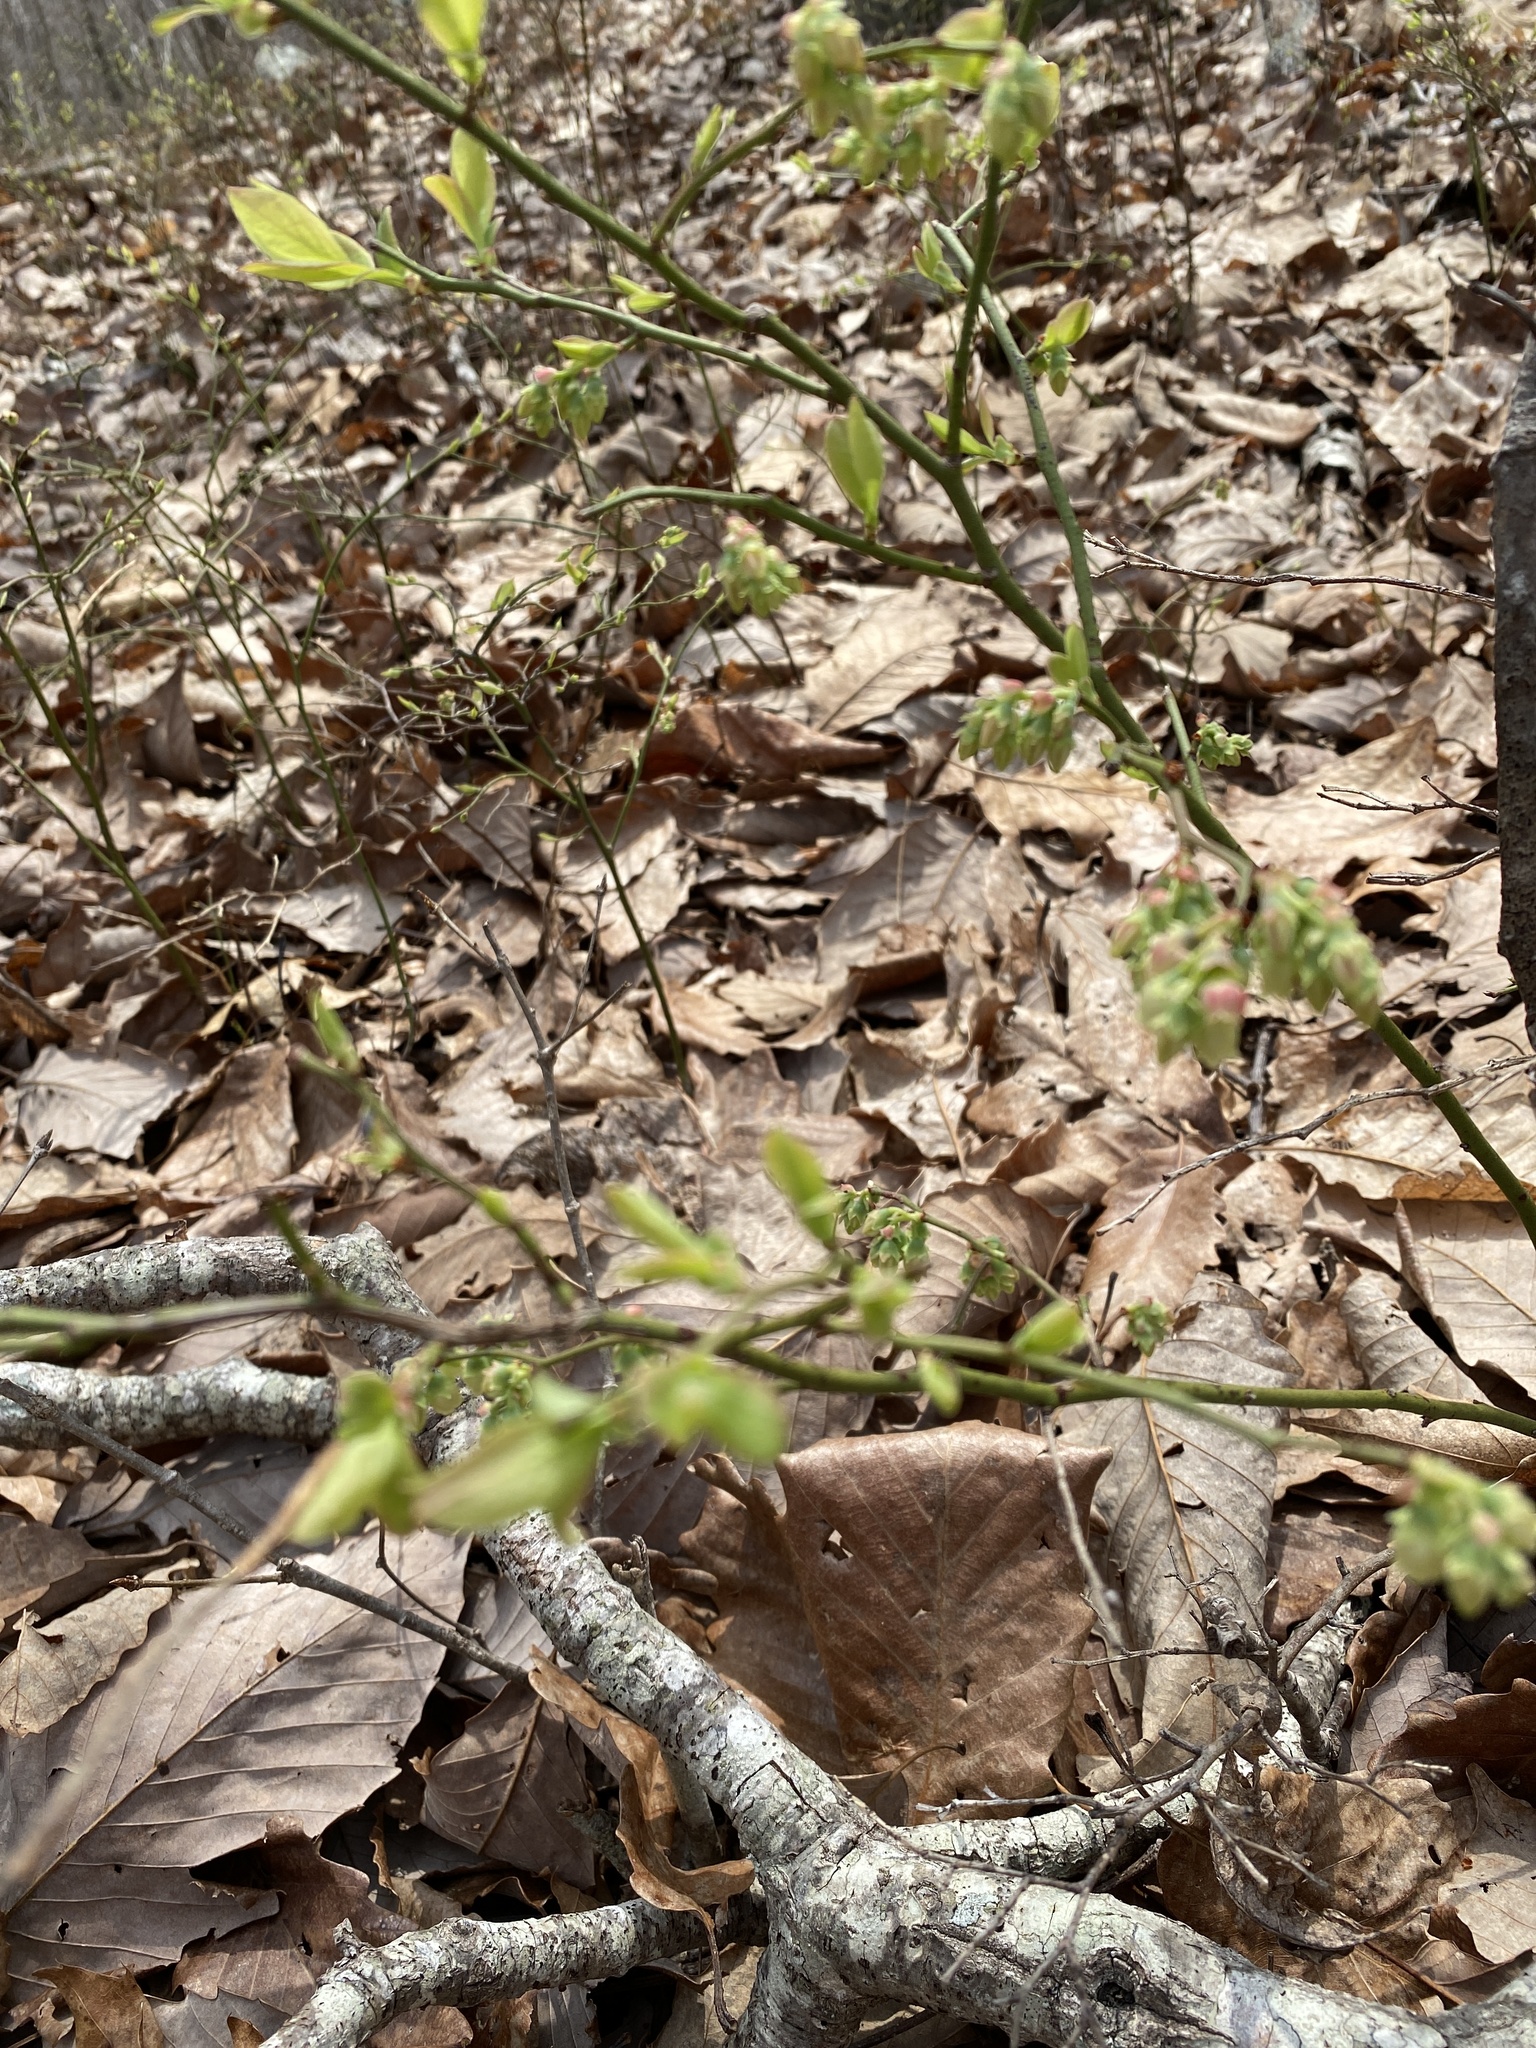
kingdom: Plantae
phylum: Tracheophyta
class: Magnoliopsida
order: Ericales
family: Ericaceae
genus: Vaccinium
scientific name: Vaccinium tenellum
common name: Southern blueberry
